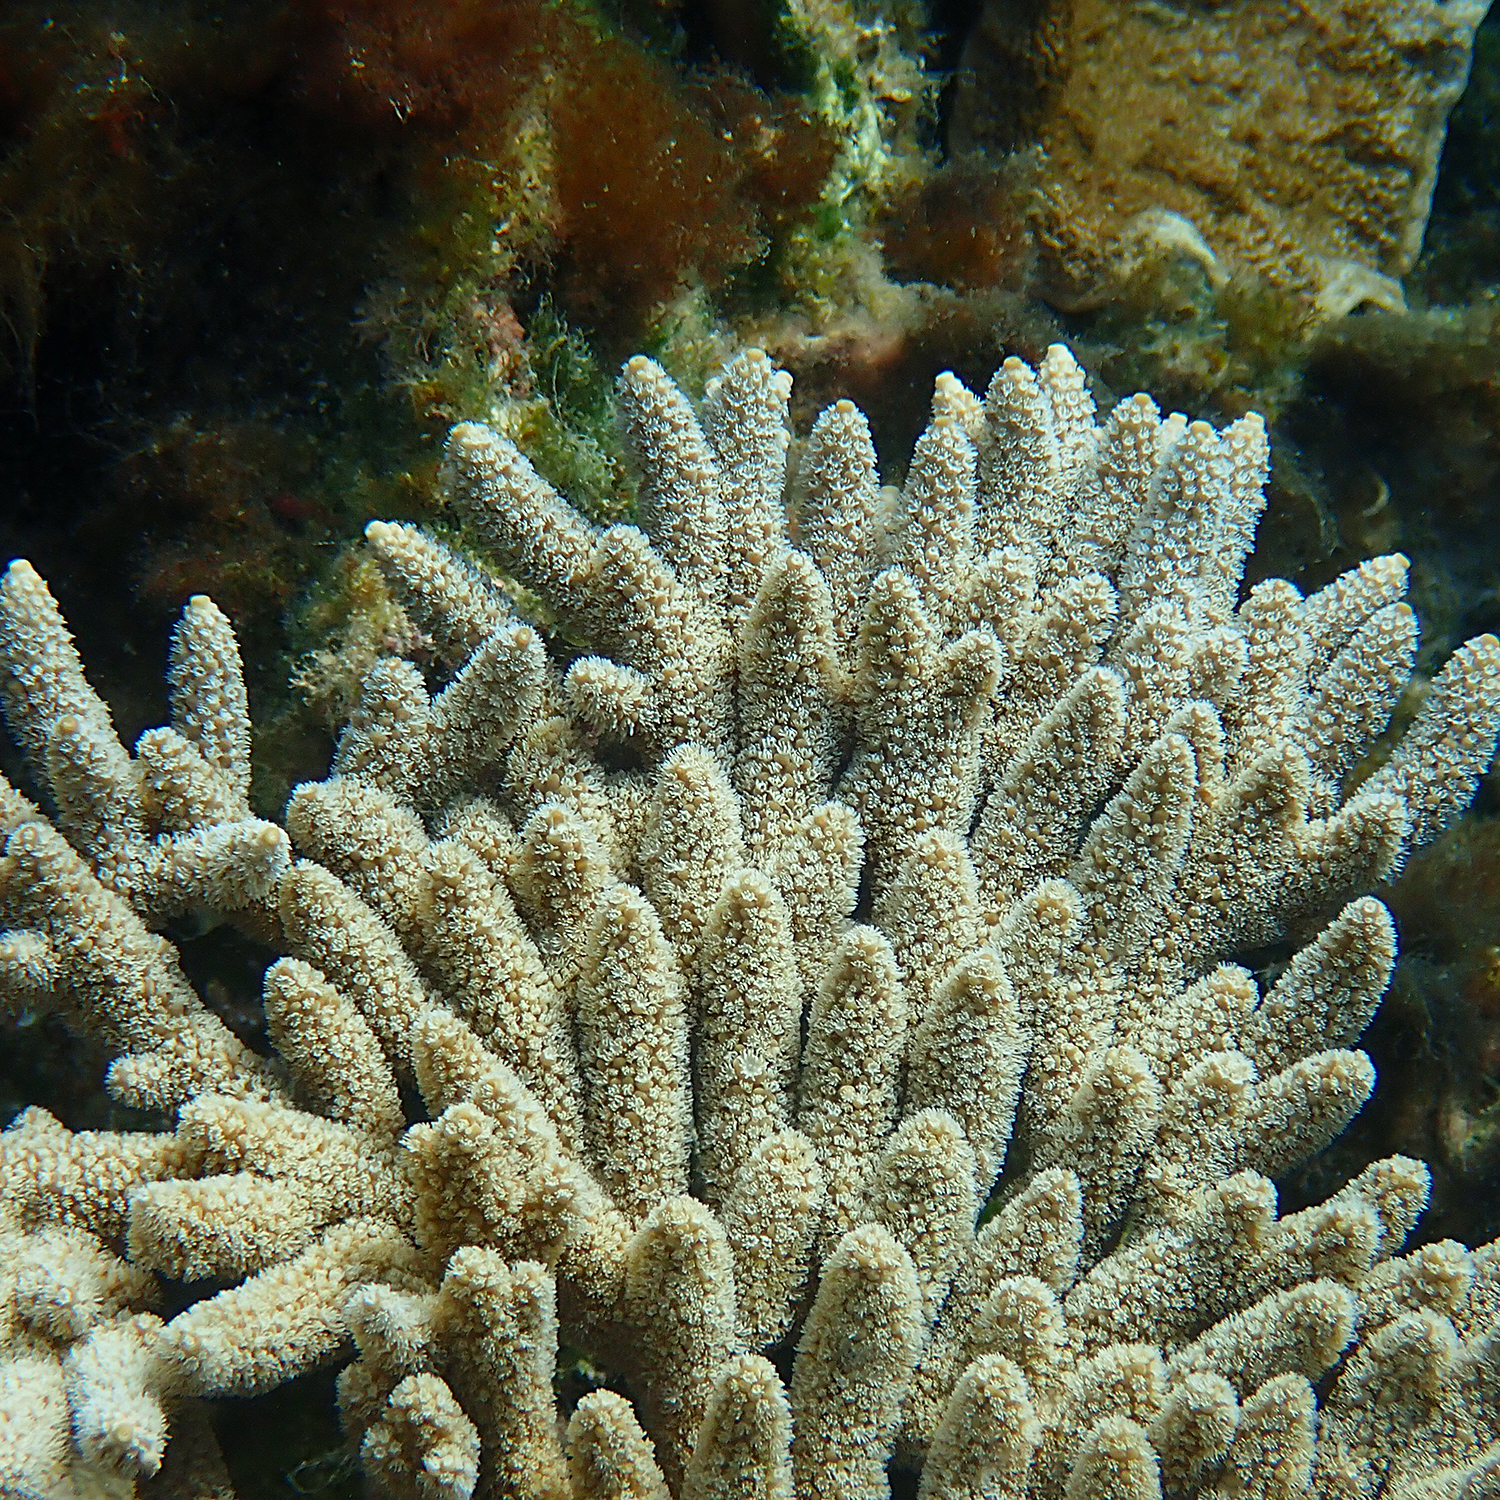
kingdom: Animalia
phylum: Cnidaria
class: Anthozoa
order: Scleractinia
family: Acroporidae
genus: Acropora
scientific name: Acropora solitaryensis
